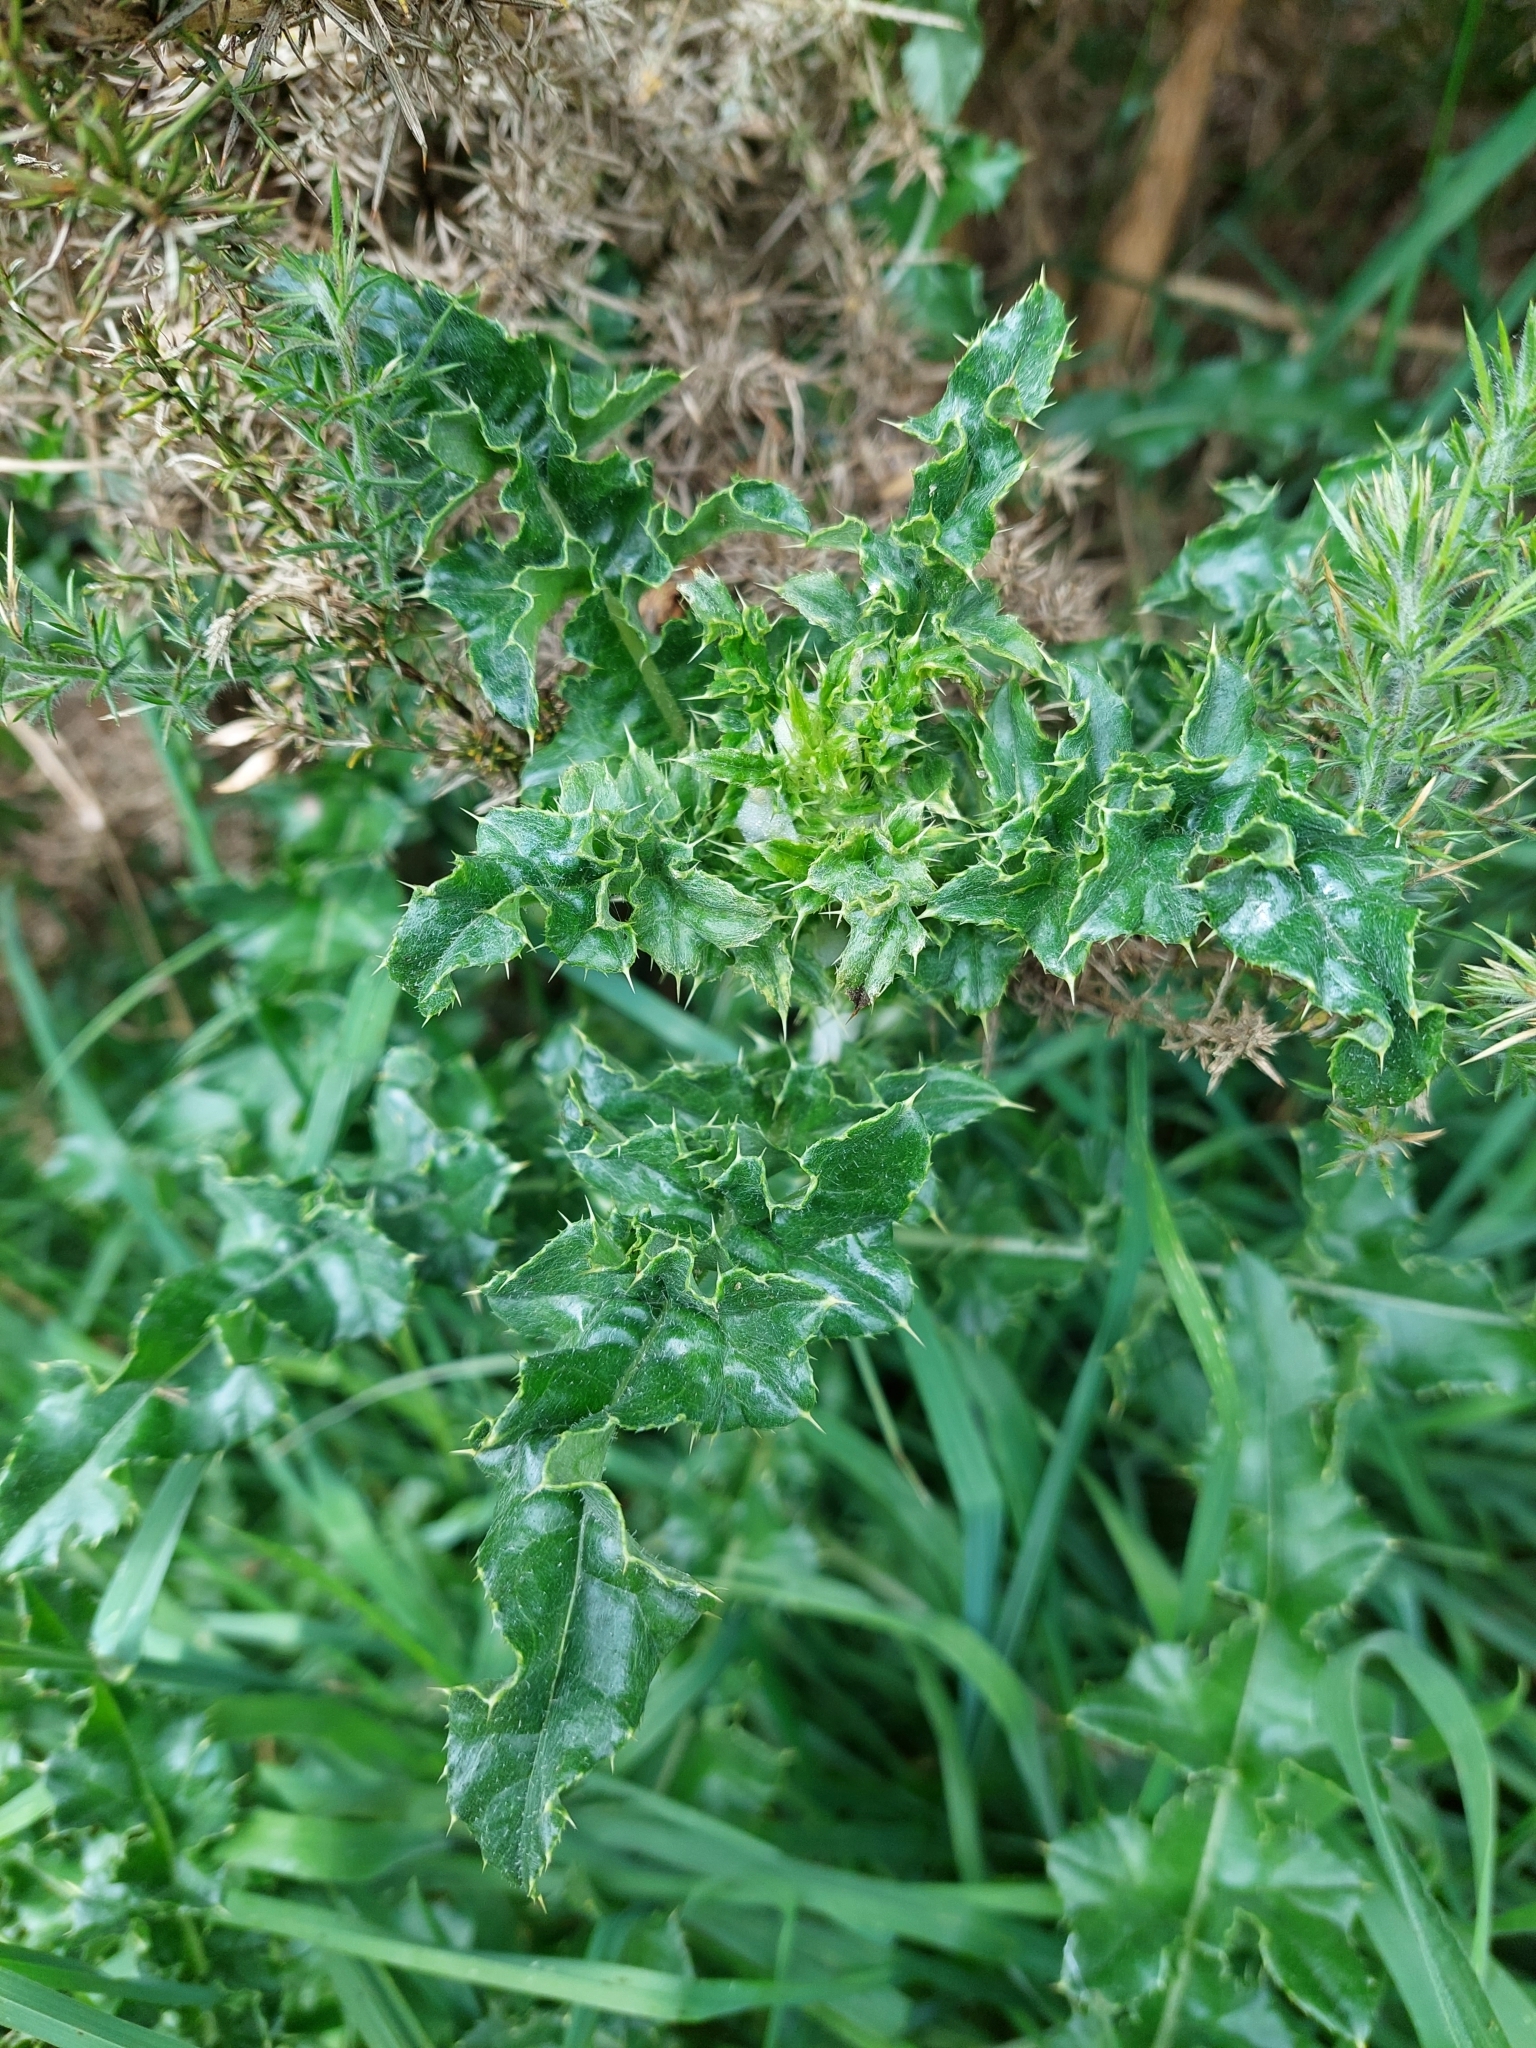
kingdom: Plantae
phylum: Tracheophyta
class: Magnoliopsida
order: Asterales
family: Asteraceae
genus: Cirsium
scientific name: Cirsium arvense
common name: Creeping thistle
